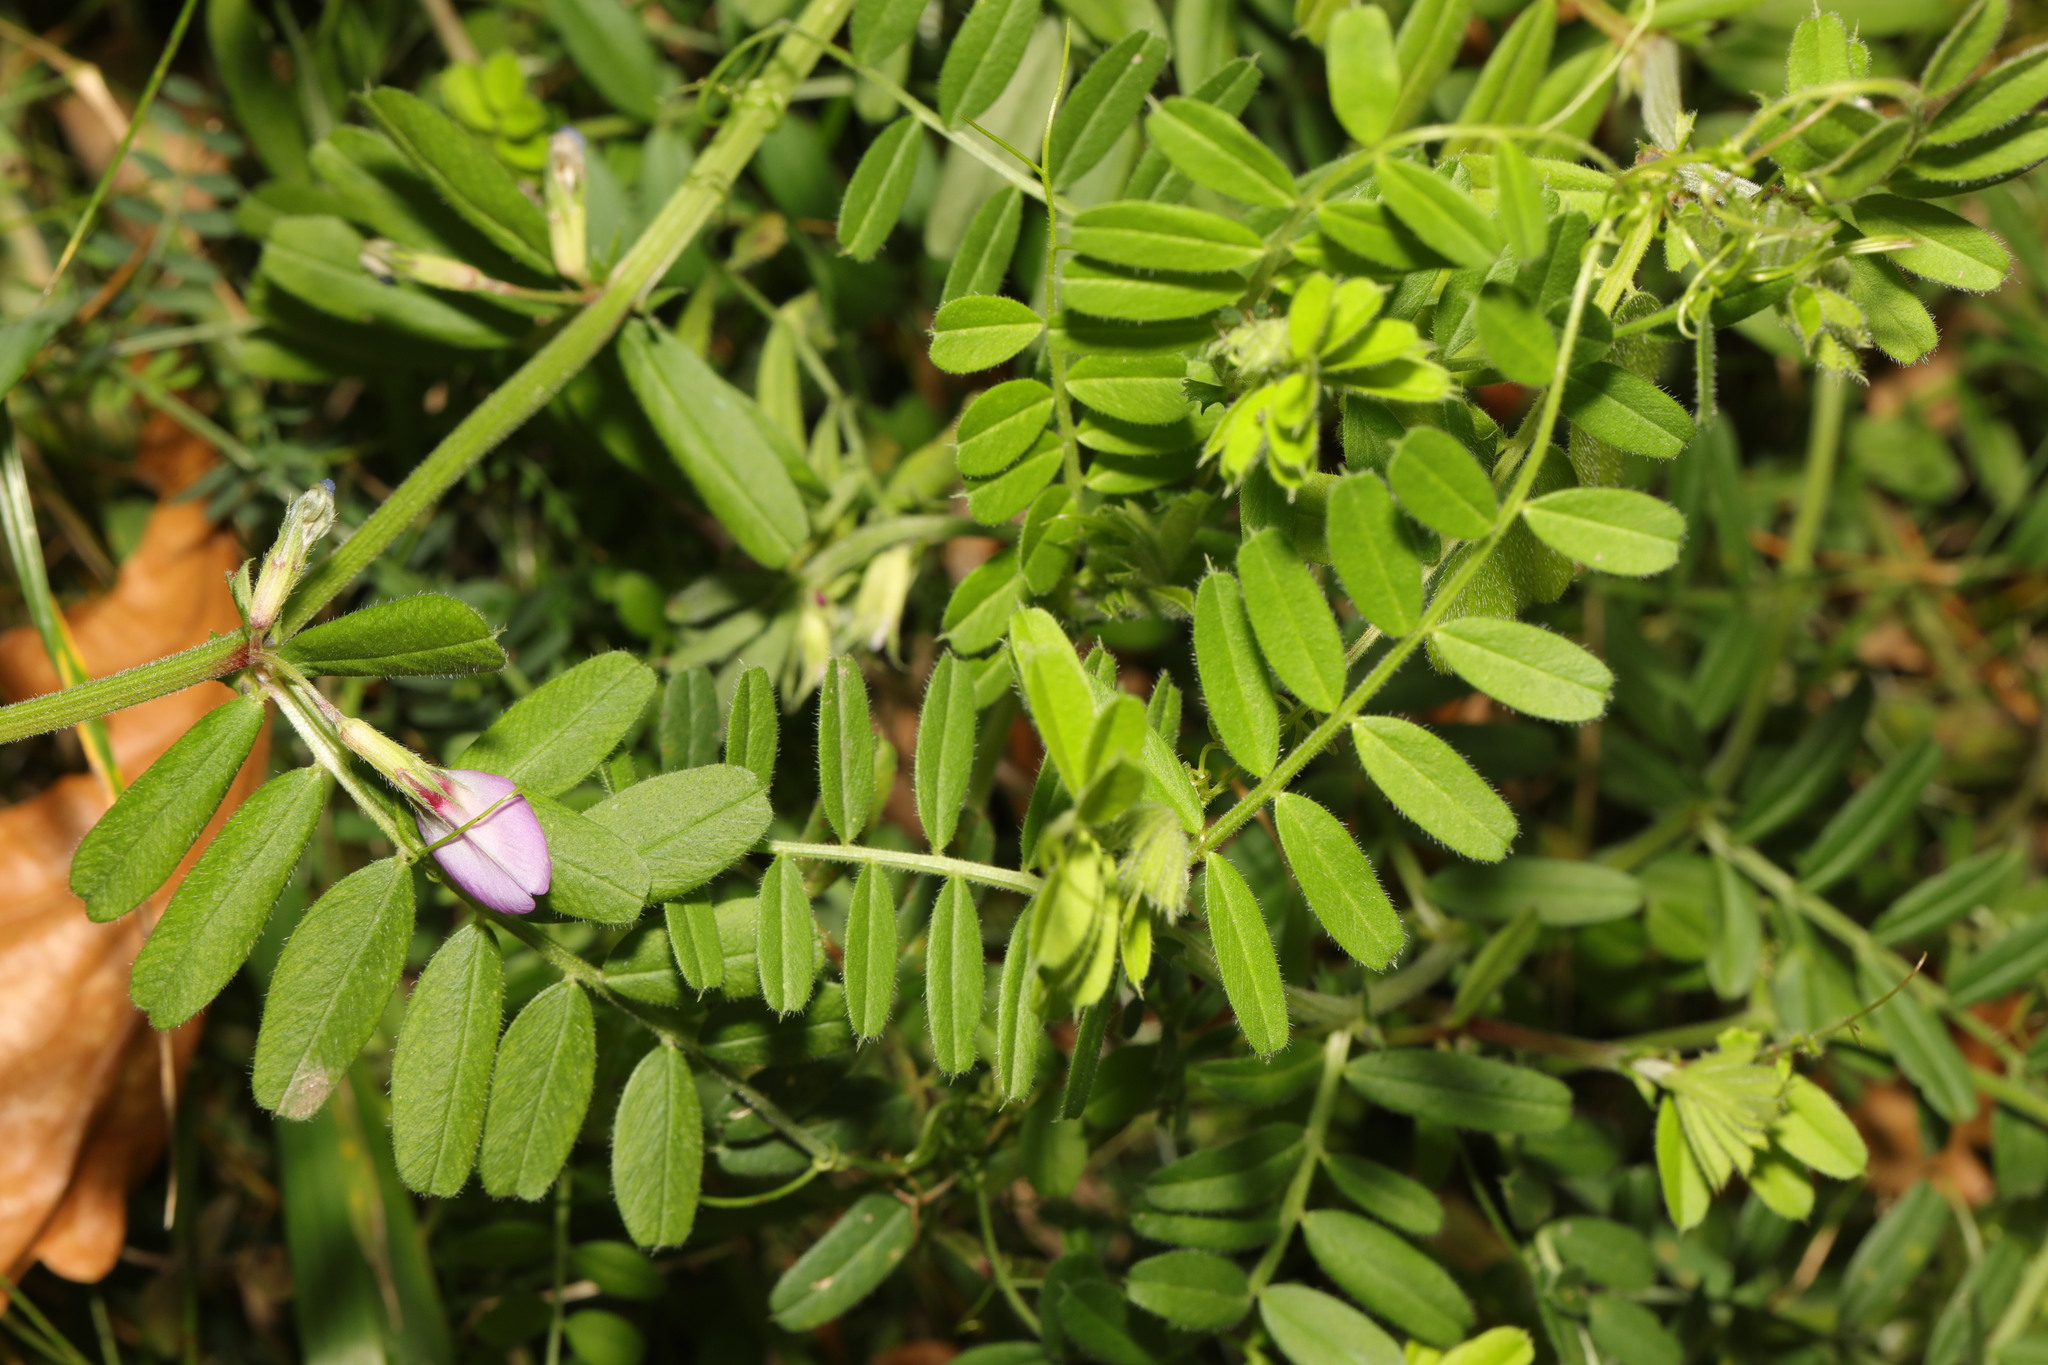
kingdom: Plantae
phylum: Tracheophyta
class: Magnoliopsida
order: Fabales
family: Fabaceae
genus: Vicia
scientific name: Vicia sativa
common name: Garden vetch
